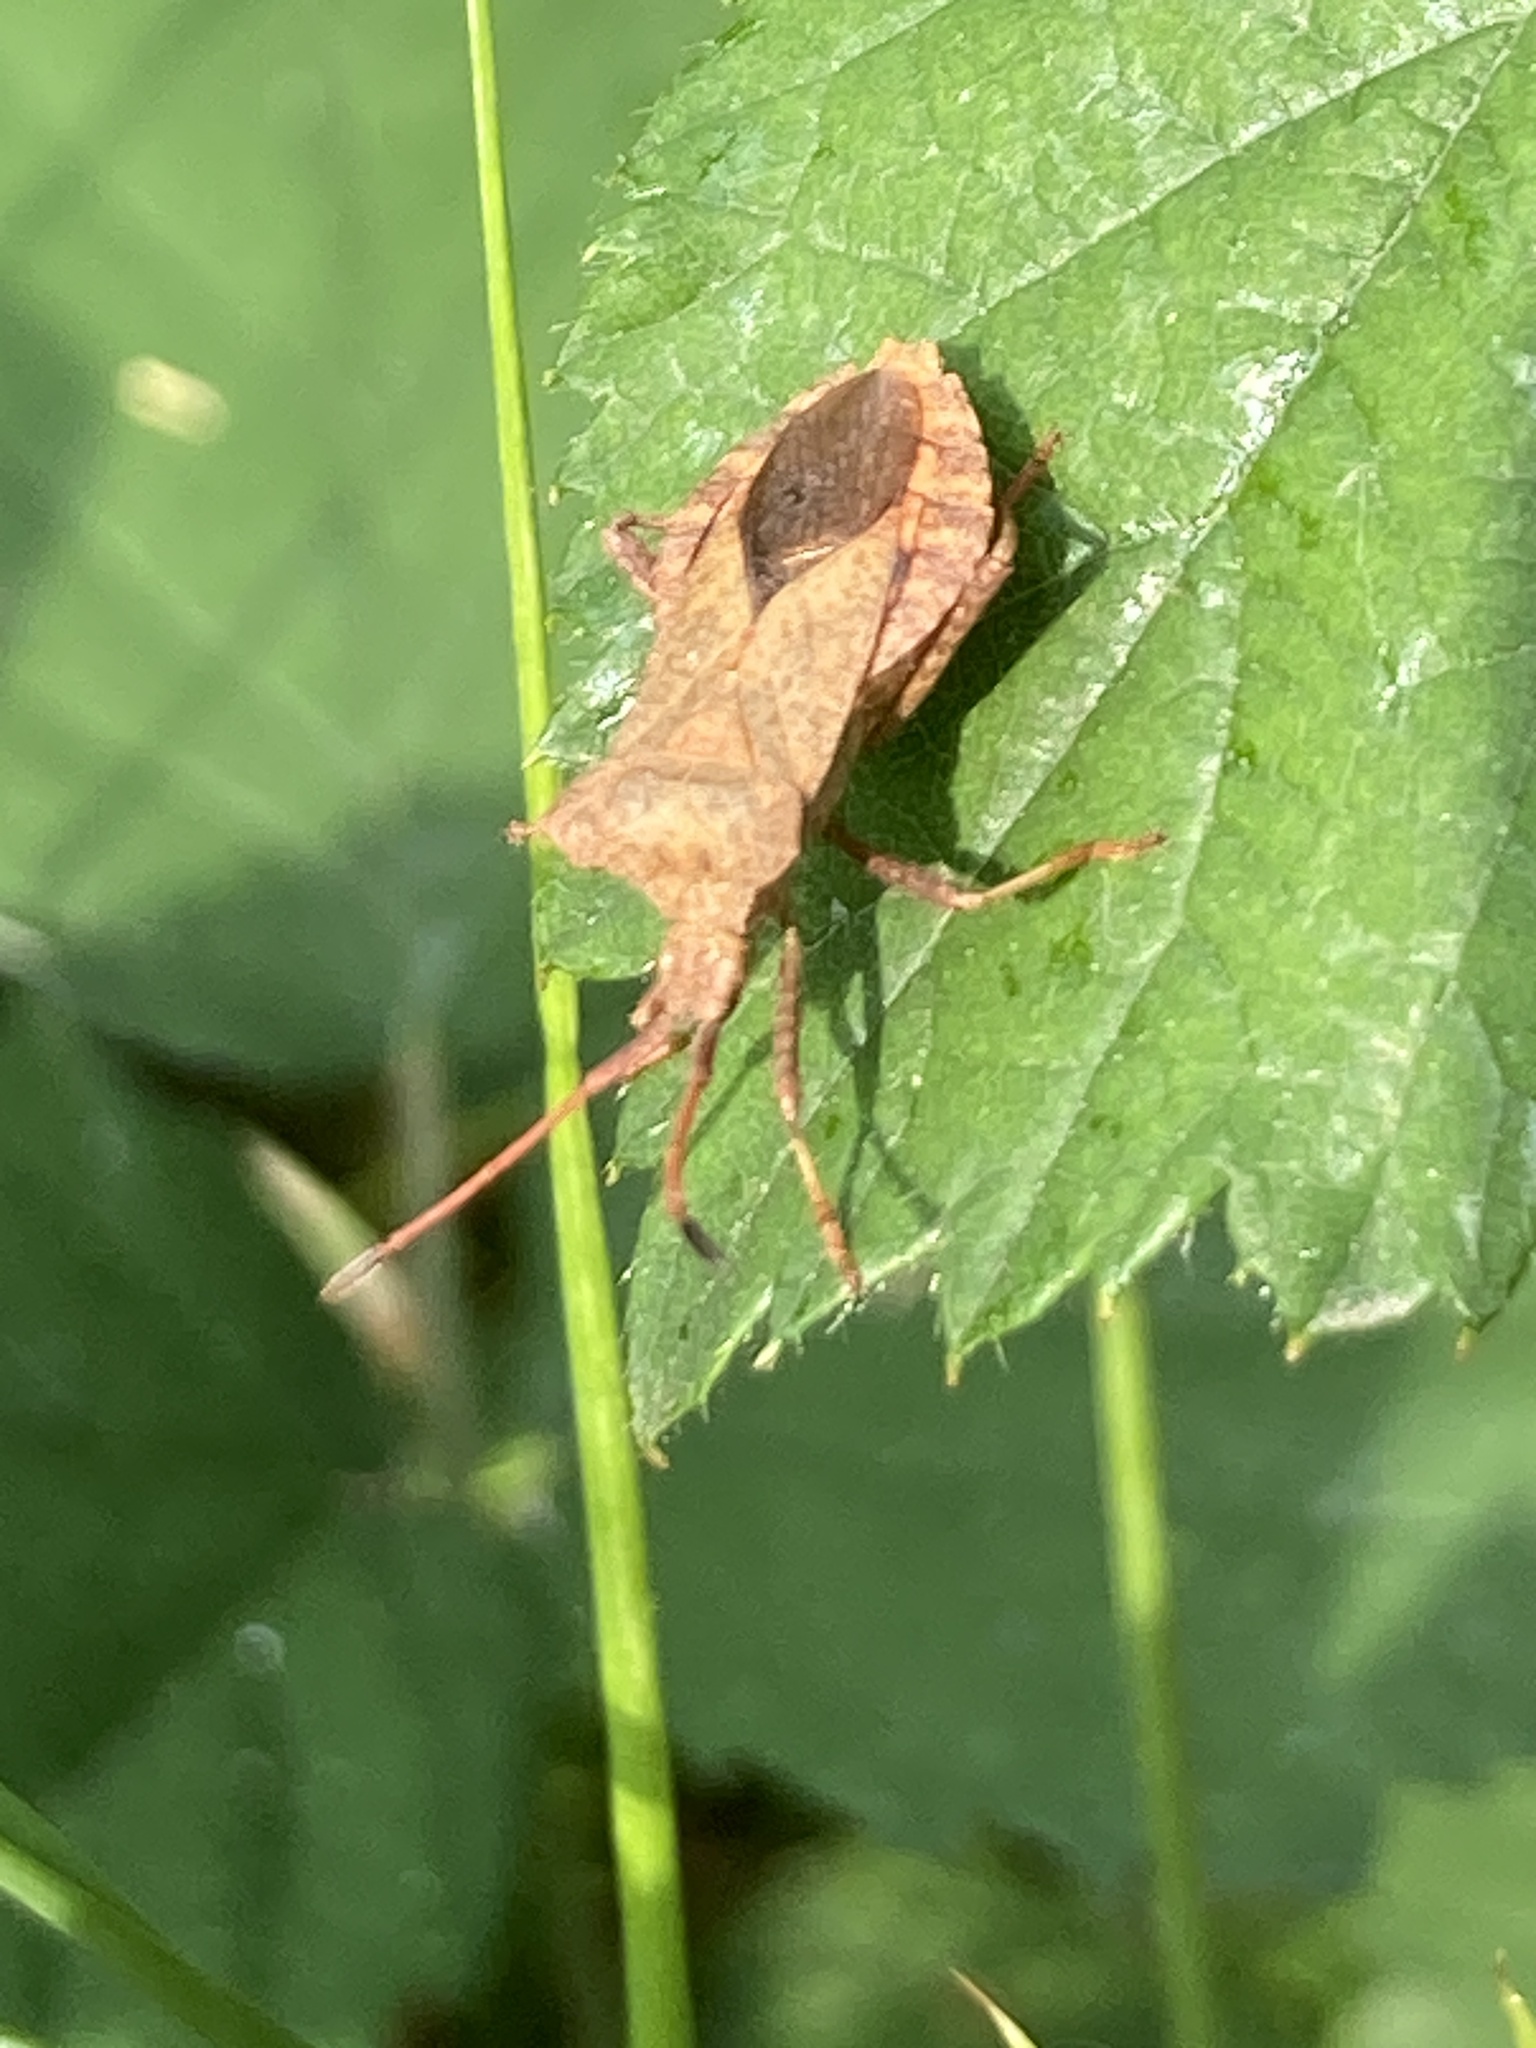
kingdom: Animalia
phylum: Arthropoda
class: Insecta
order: Hemiptera
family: Coreidae
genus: Coreus
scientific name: Coreus marginatus
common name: Dock bug
